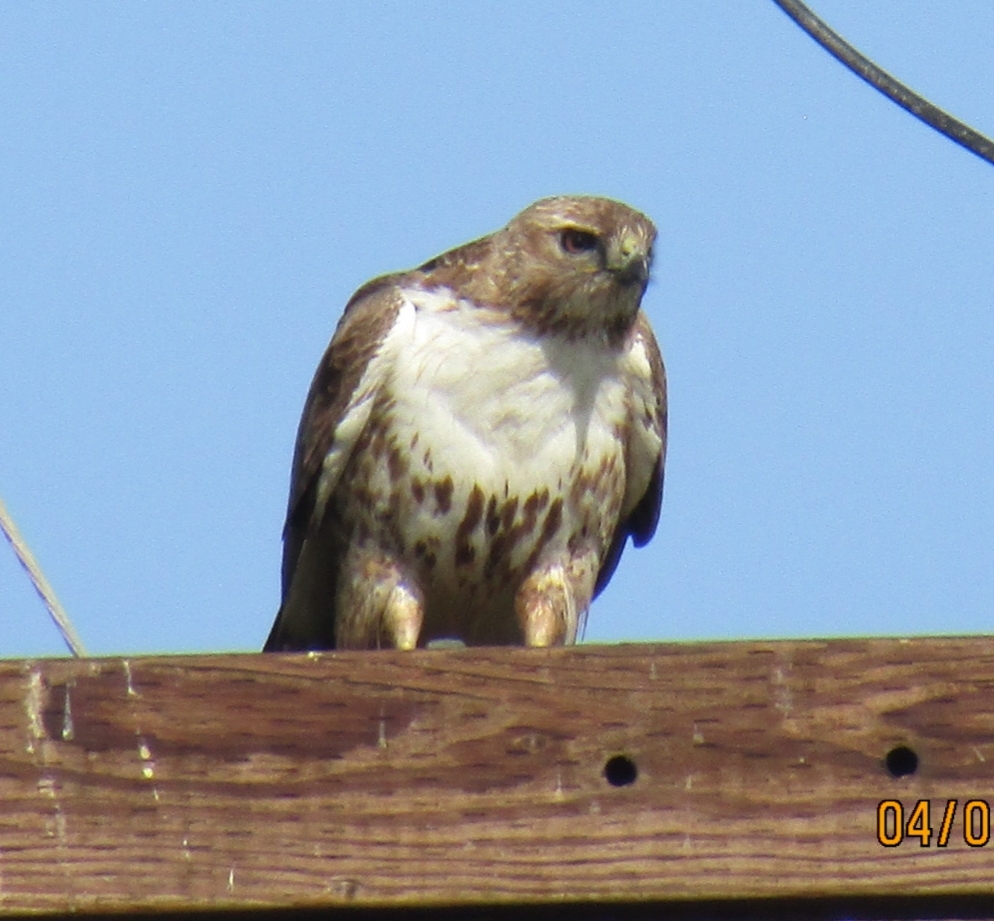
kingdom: Animalia
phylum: Chordata
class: Aves
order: Accipitriformes
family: Accipitridae
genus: Buteo
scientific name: Buteo jamaicensis
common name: Red-tailed hawk
